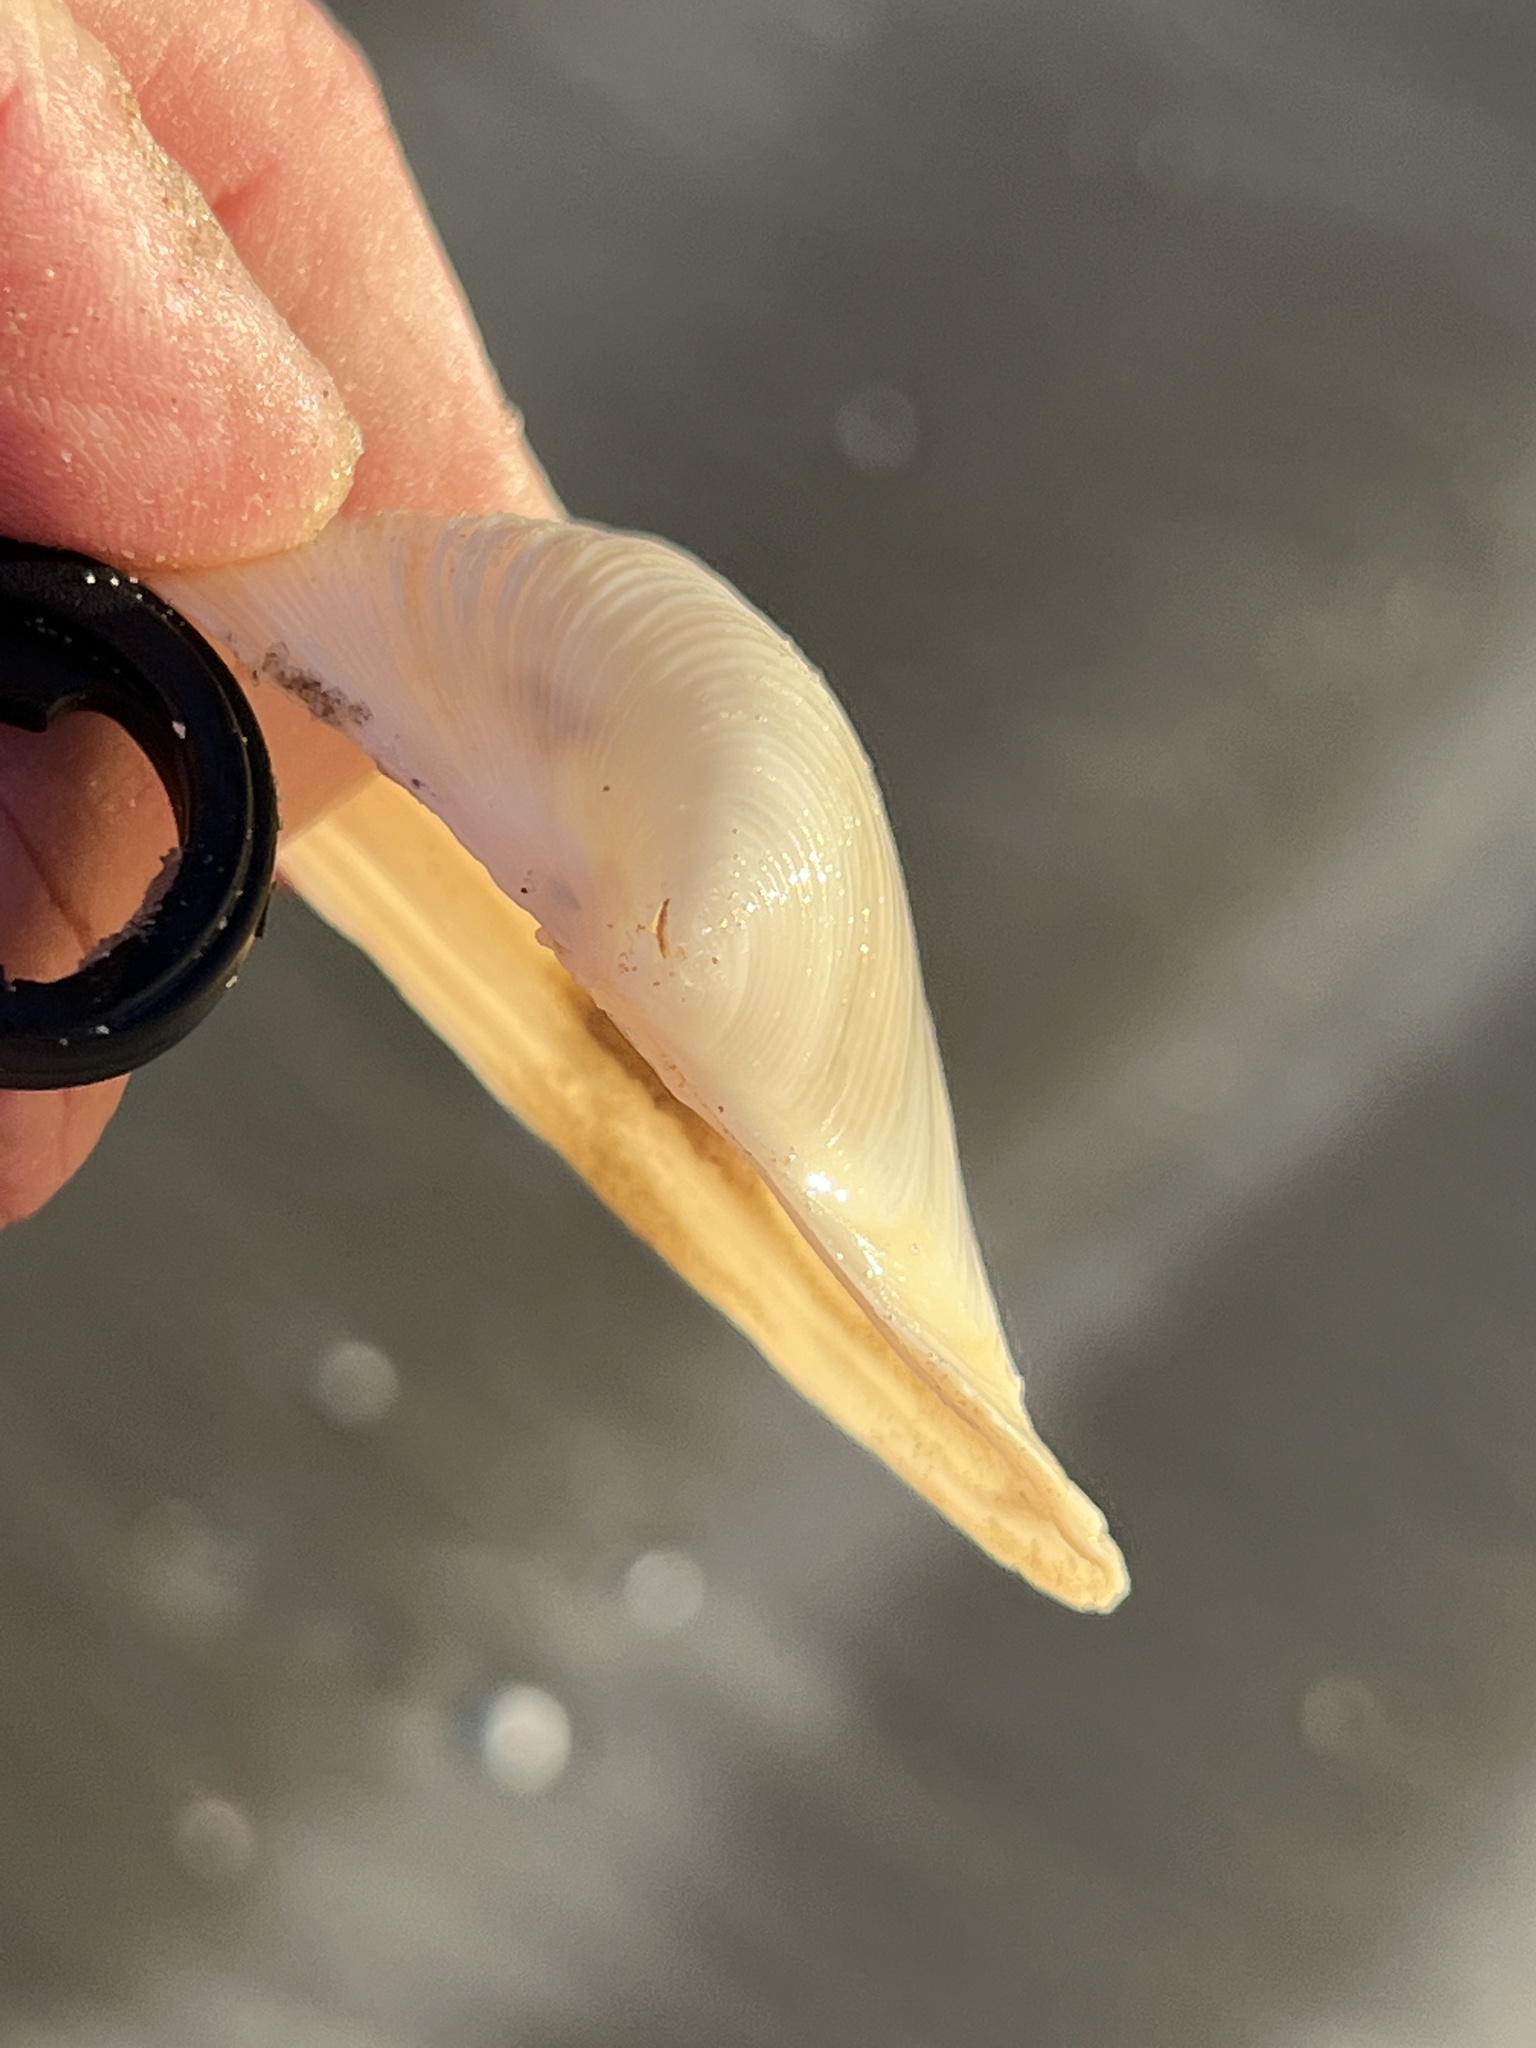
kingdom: Animalia
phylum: Mollusca
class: Bivalvia
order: Venerida
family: Anatinellidae
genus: Raeta
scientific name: Raeta plicatella
